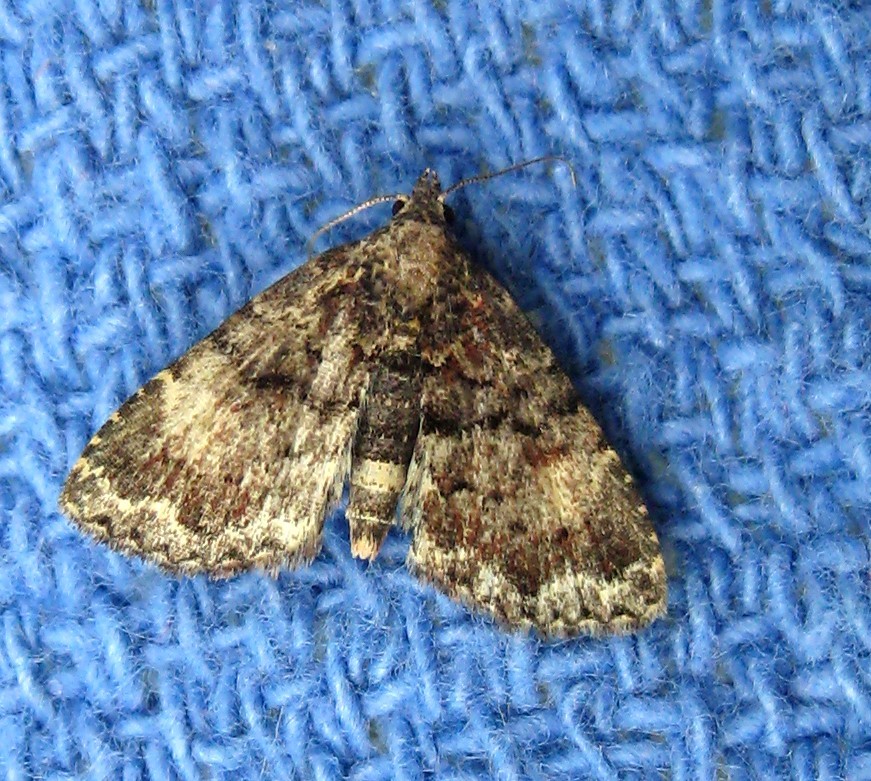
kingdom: Animalia
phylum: Arthropoda
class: Insecta
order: Lepidoptera
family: Erebidae
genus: Metalectra
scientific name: Metalectra richardsi
